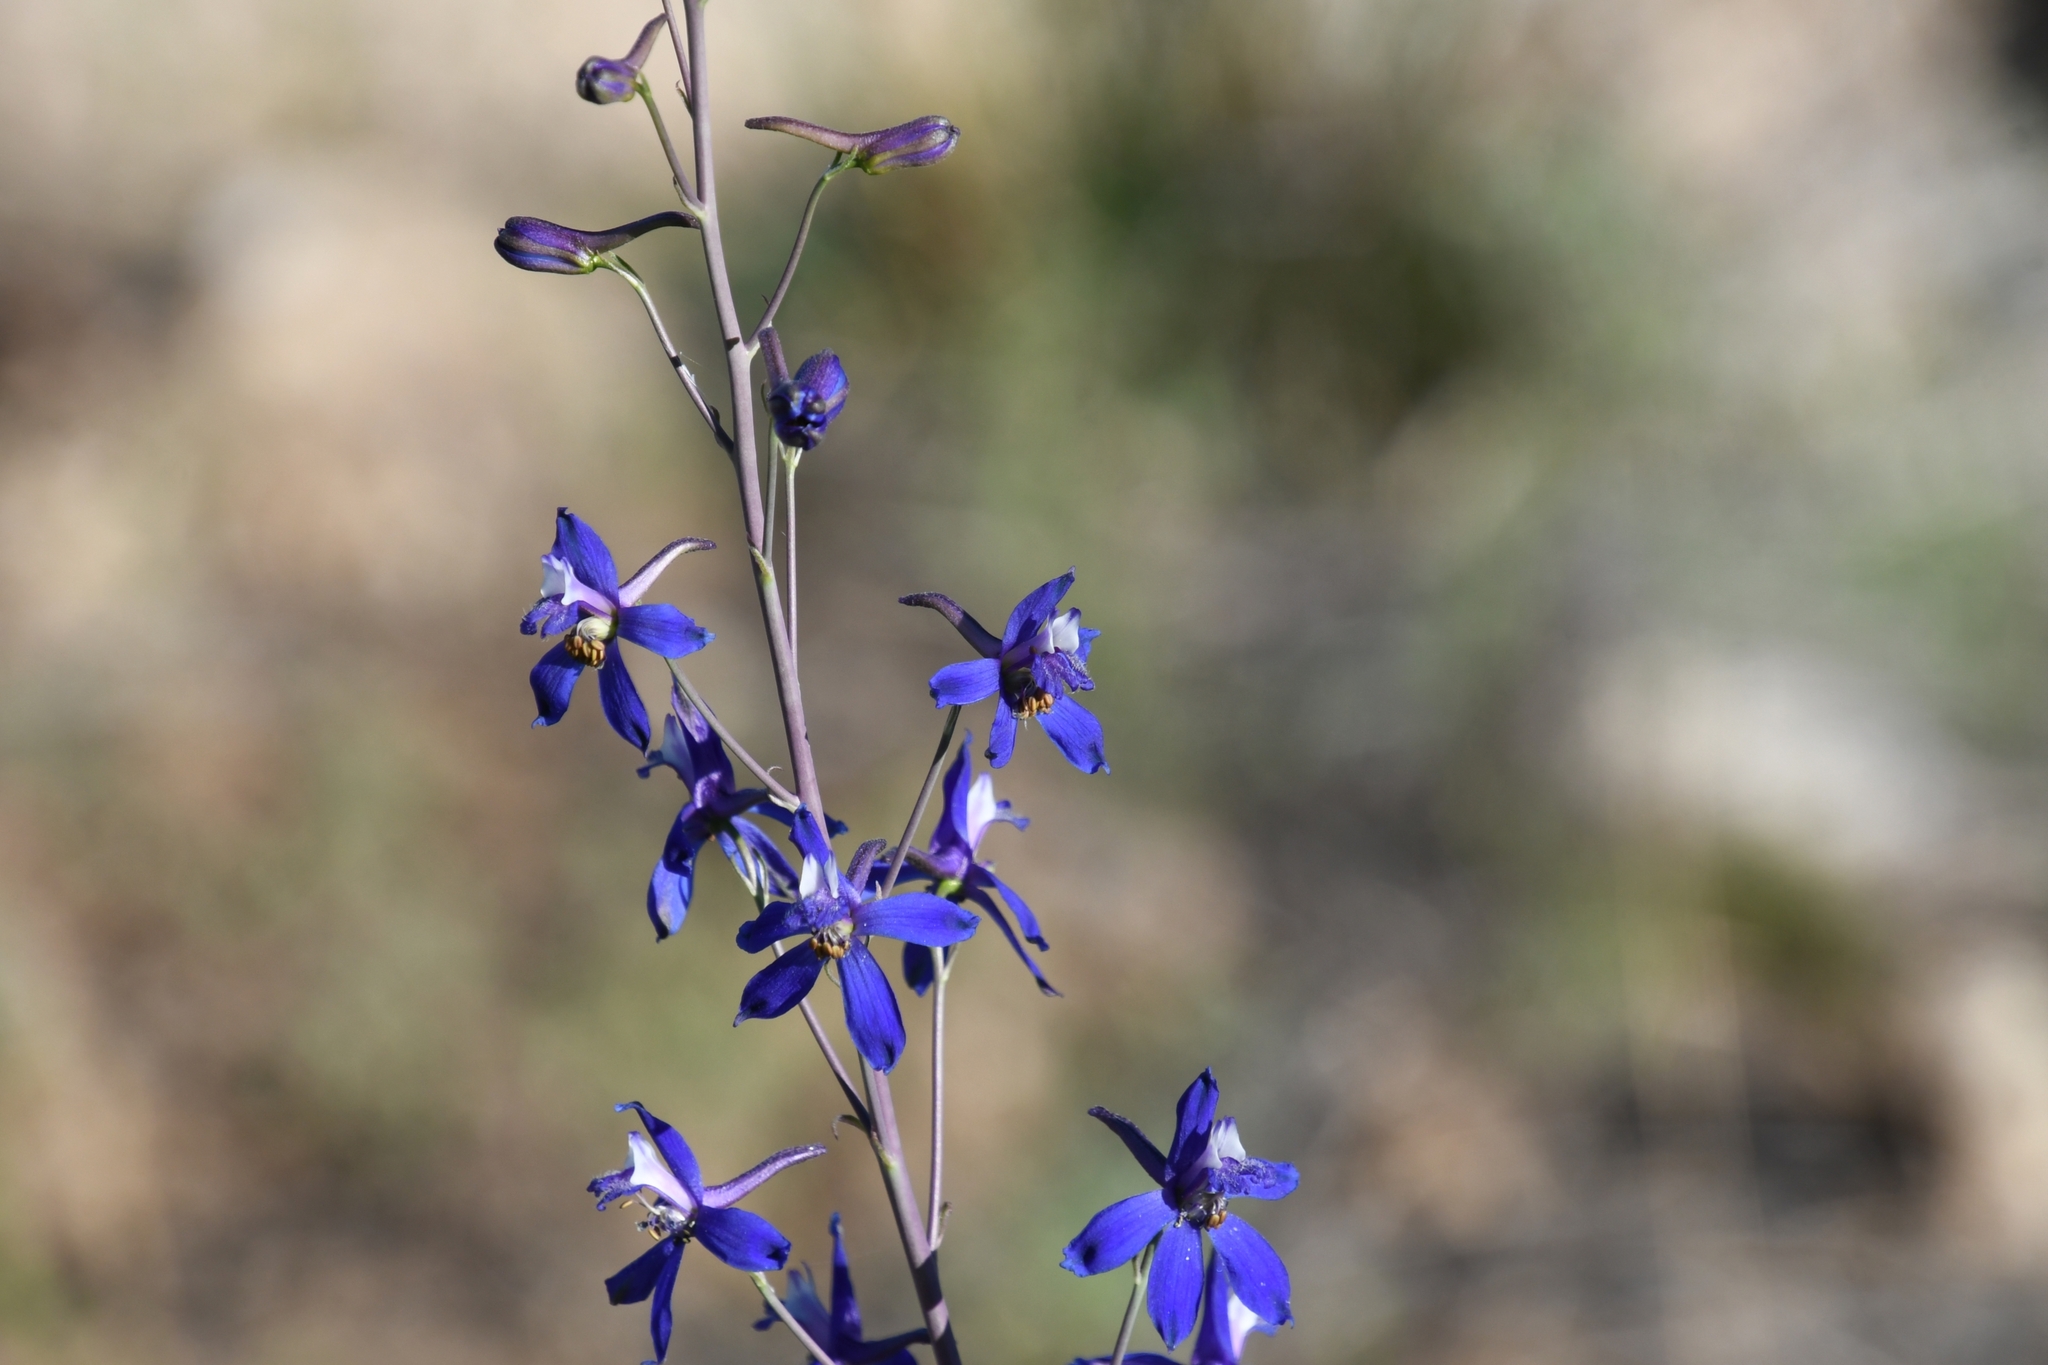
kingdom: Plantae
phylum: Tracheophyta
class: Magnoliopsida
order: Ranunculales
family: Ranunculaceae
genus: Delphinium
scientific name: Delphinium scaposum
